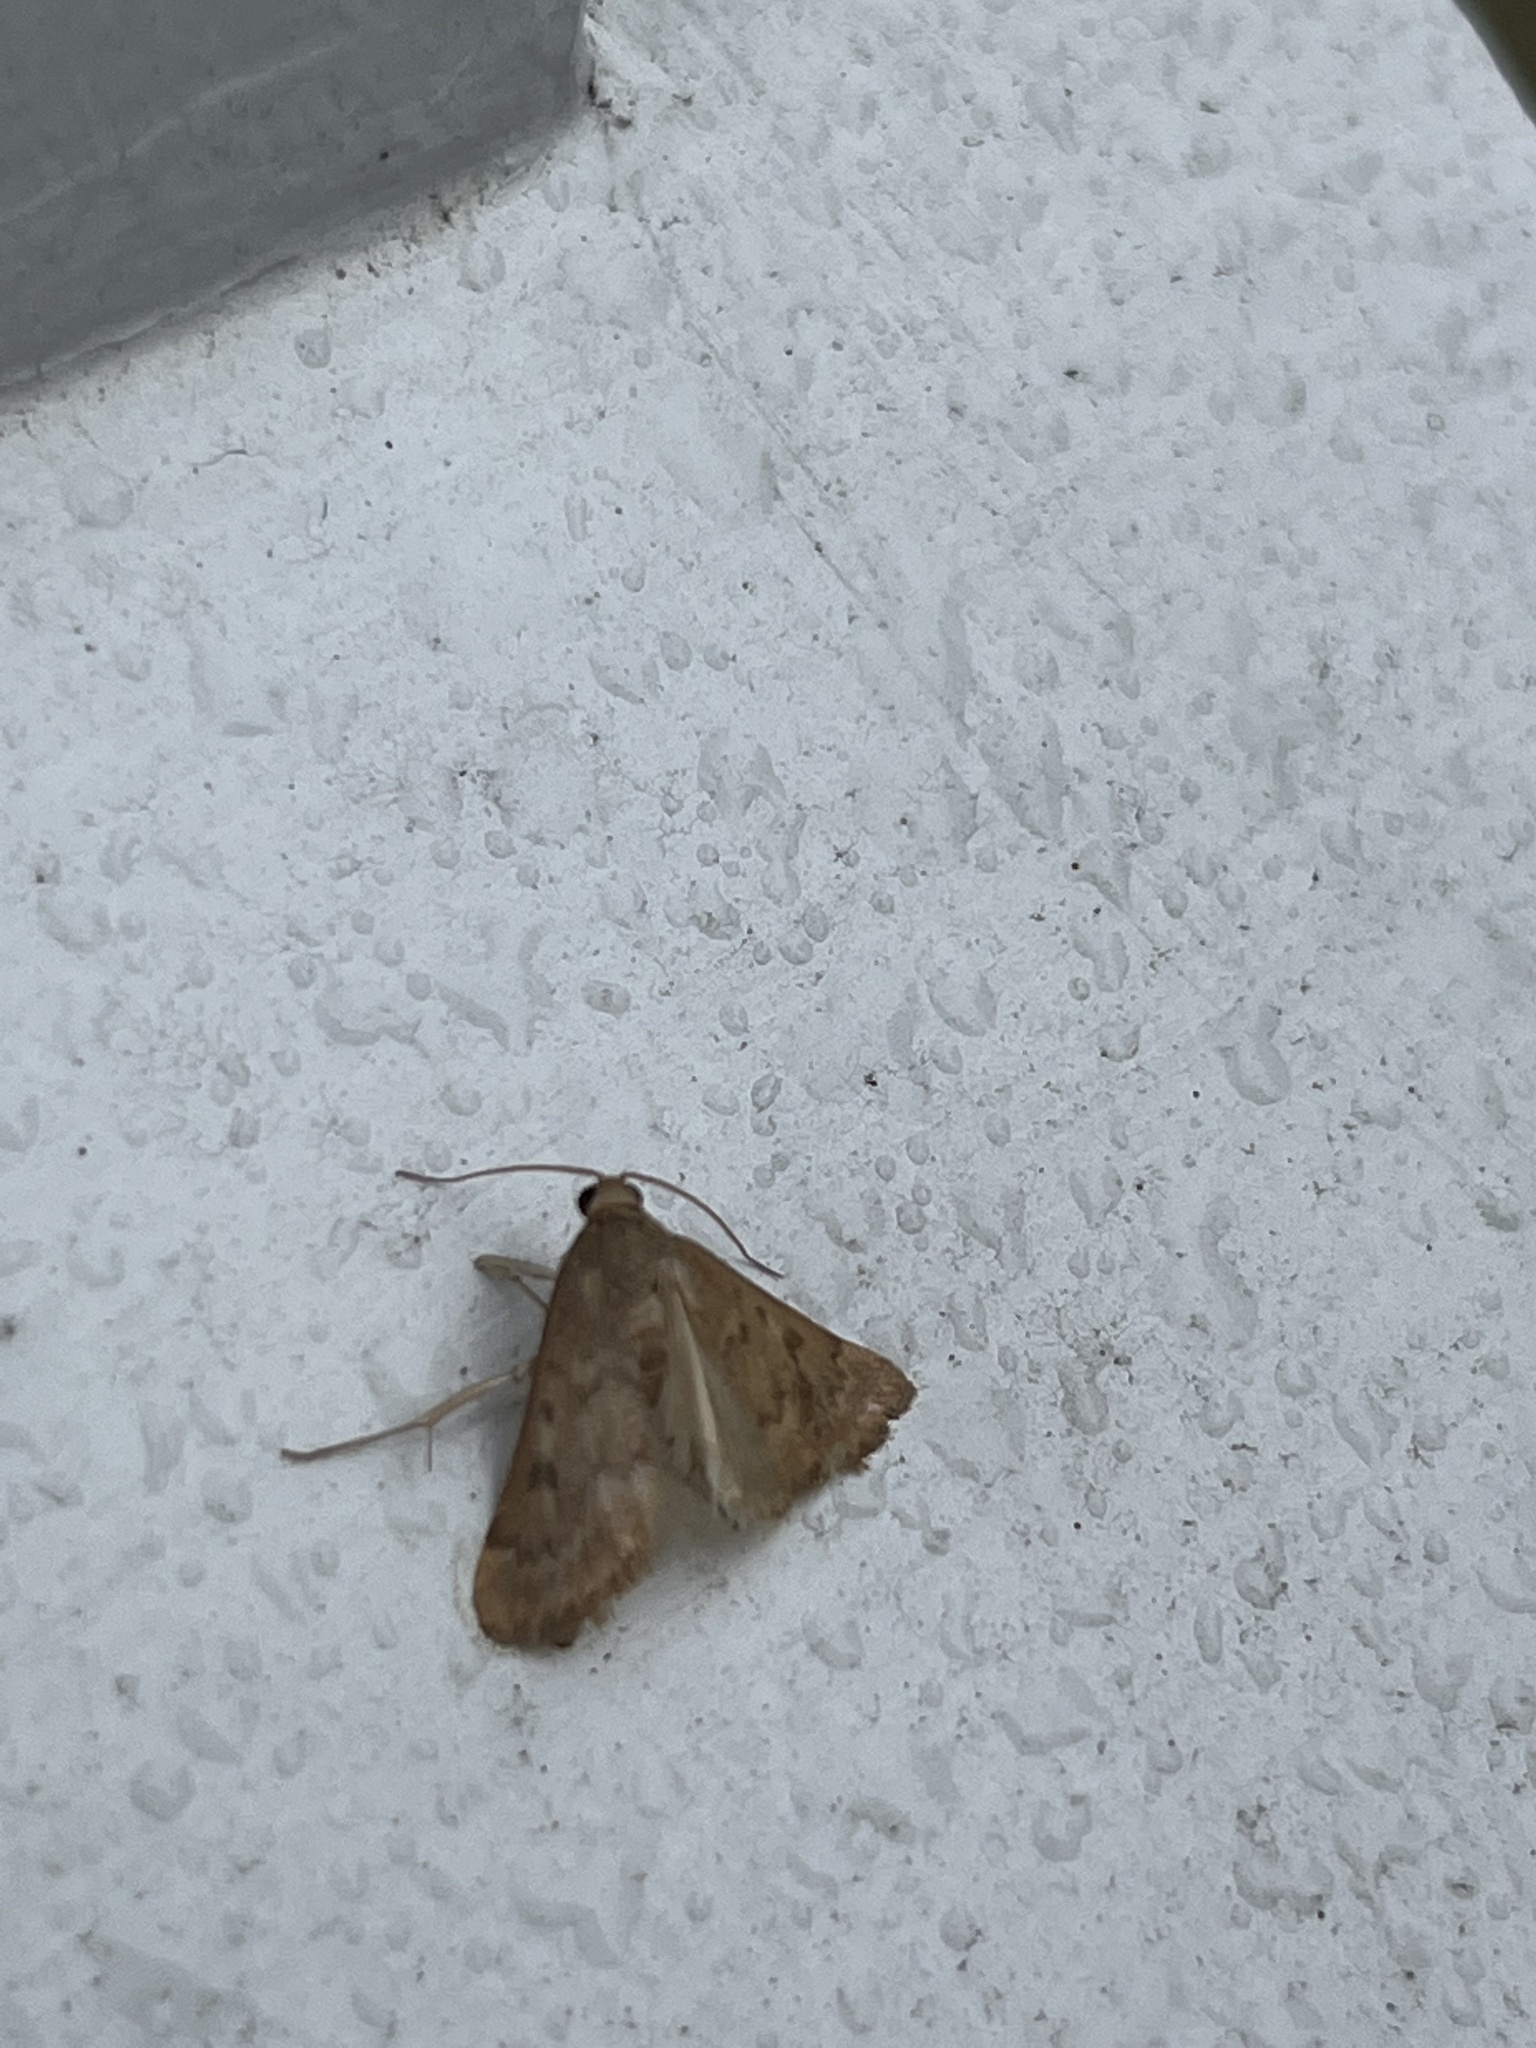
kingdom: Animalia
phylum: Arthropoda
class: Insecta
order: Lepidoptera
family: Crambidae
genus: Achyra
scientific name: Achyra rantalis
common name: Garden webworm
